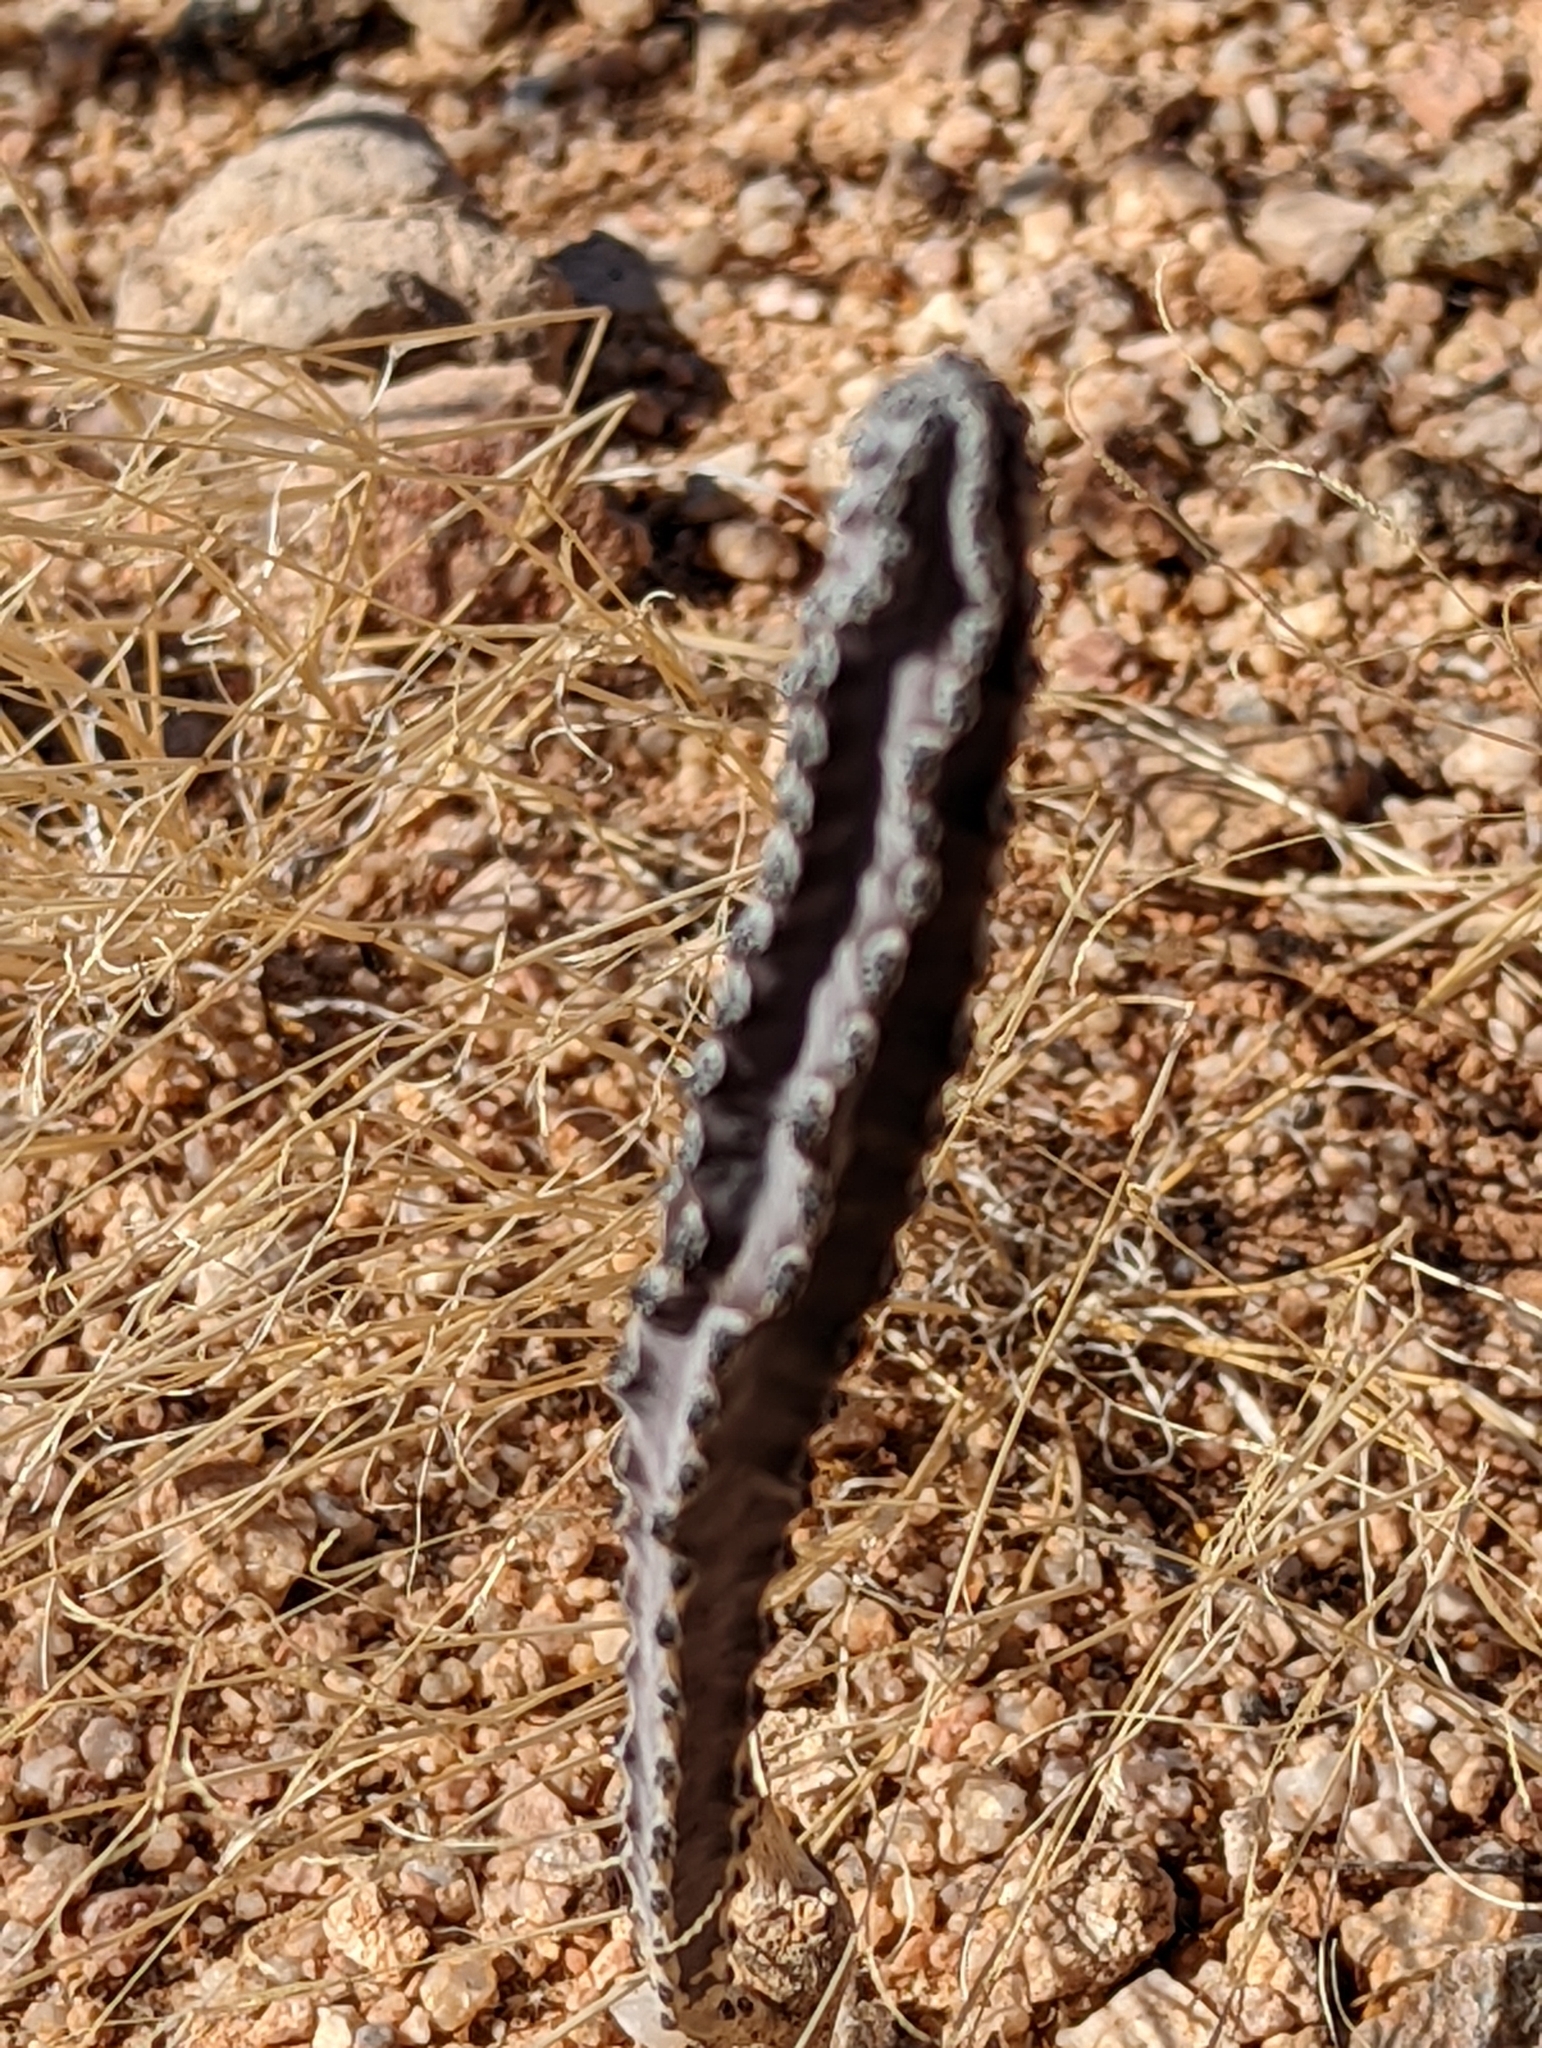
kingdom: Plantae
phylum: Tracheophyta
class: Magnoliopsida
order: Caryophyllales
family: Cactaceae
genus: Peniocereus
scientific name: Peniocereus greggii
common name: Desert night-blooming cereus
